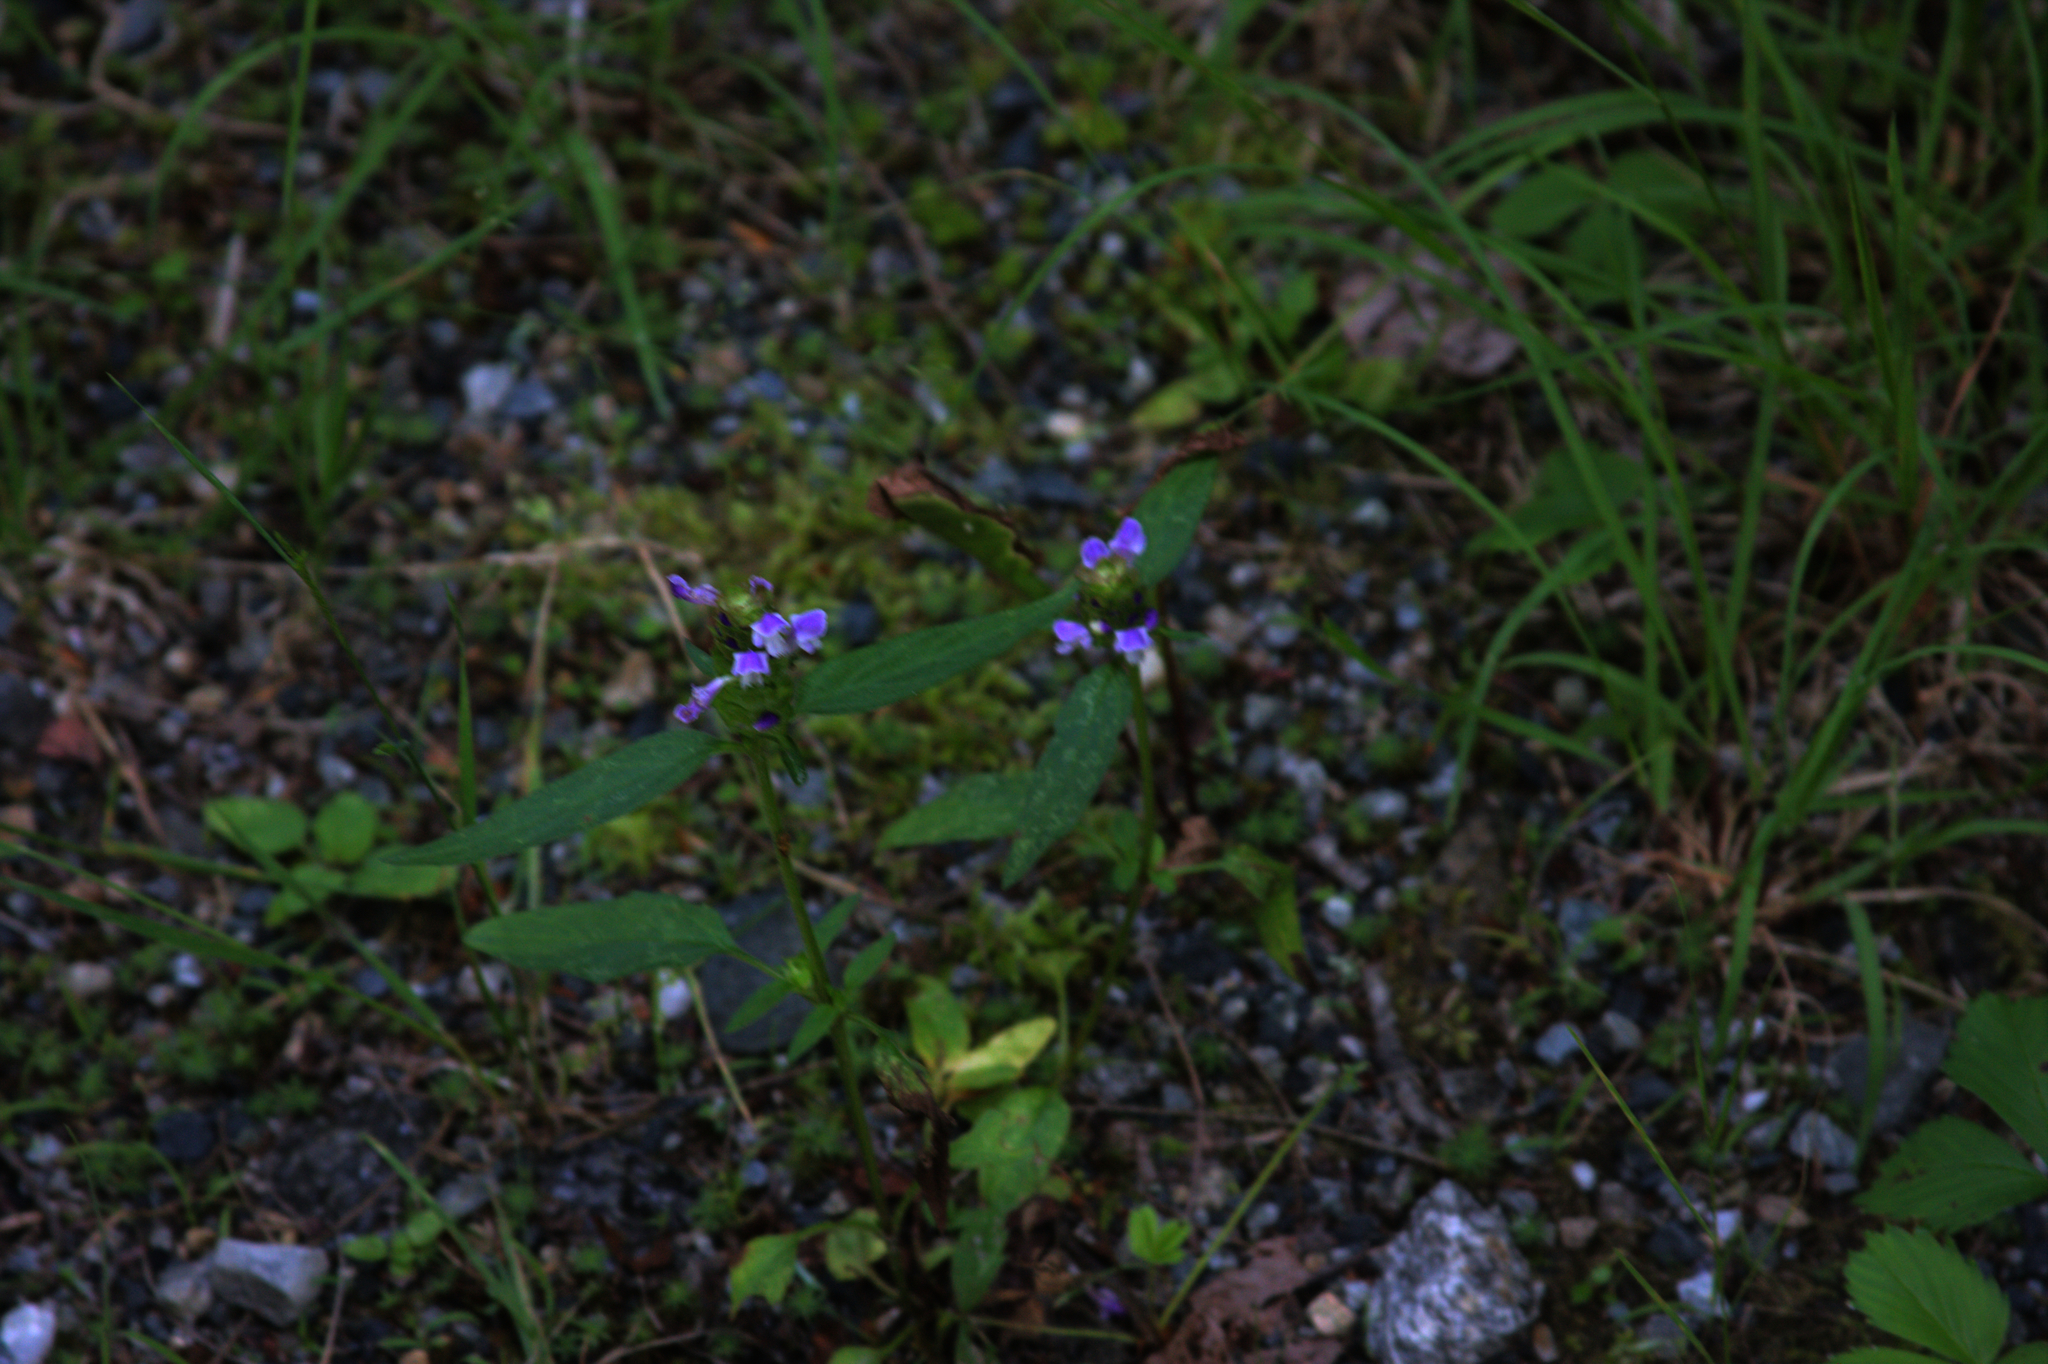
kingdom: Plantae
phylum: Tracheophyta
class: Magnoliopsida
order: Lamiales
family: Lamiaceae
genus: Prunella
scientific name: Prunella vulgaris
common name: Heal-all
